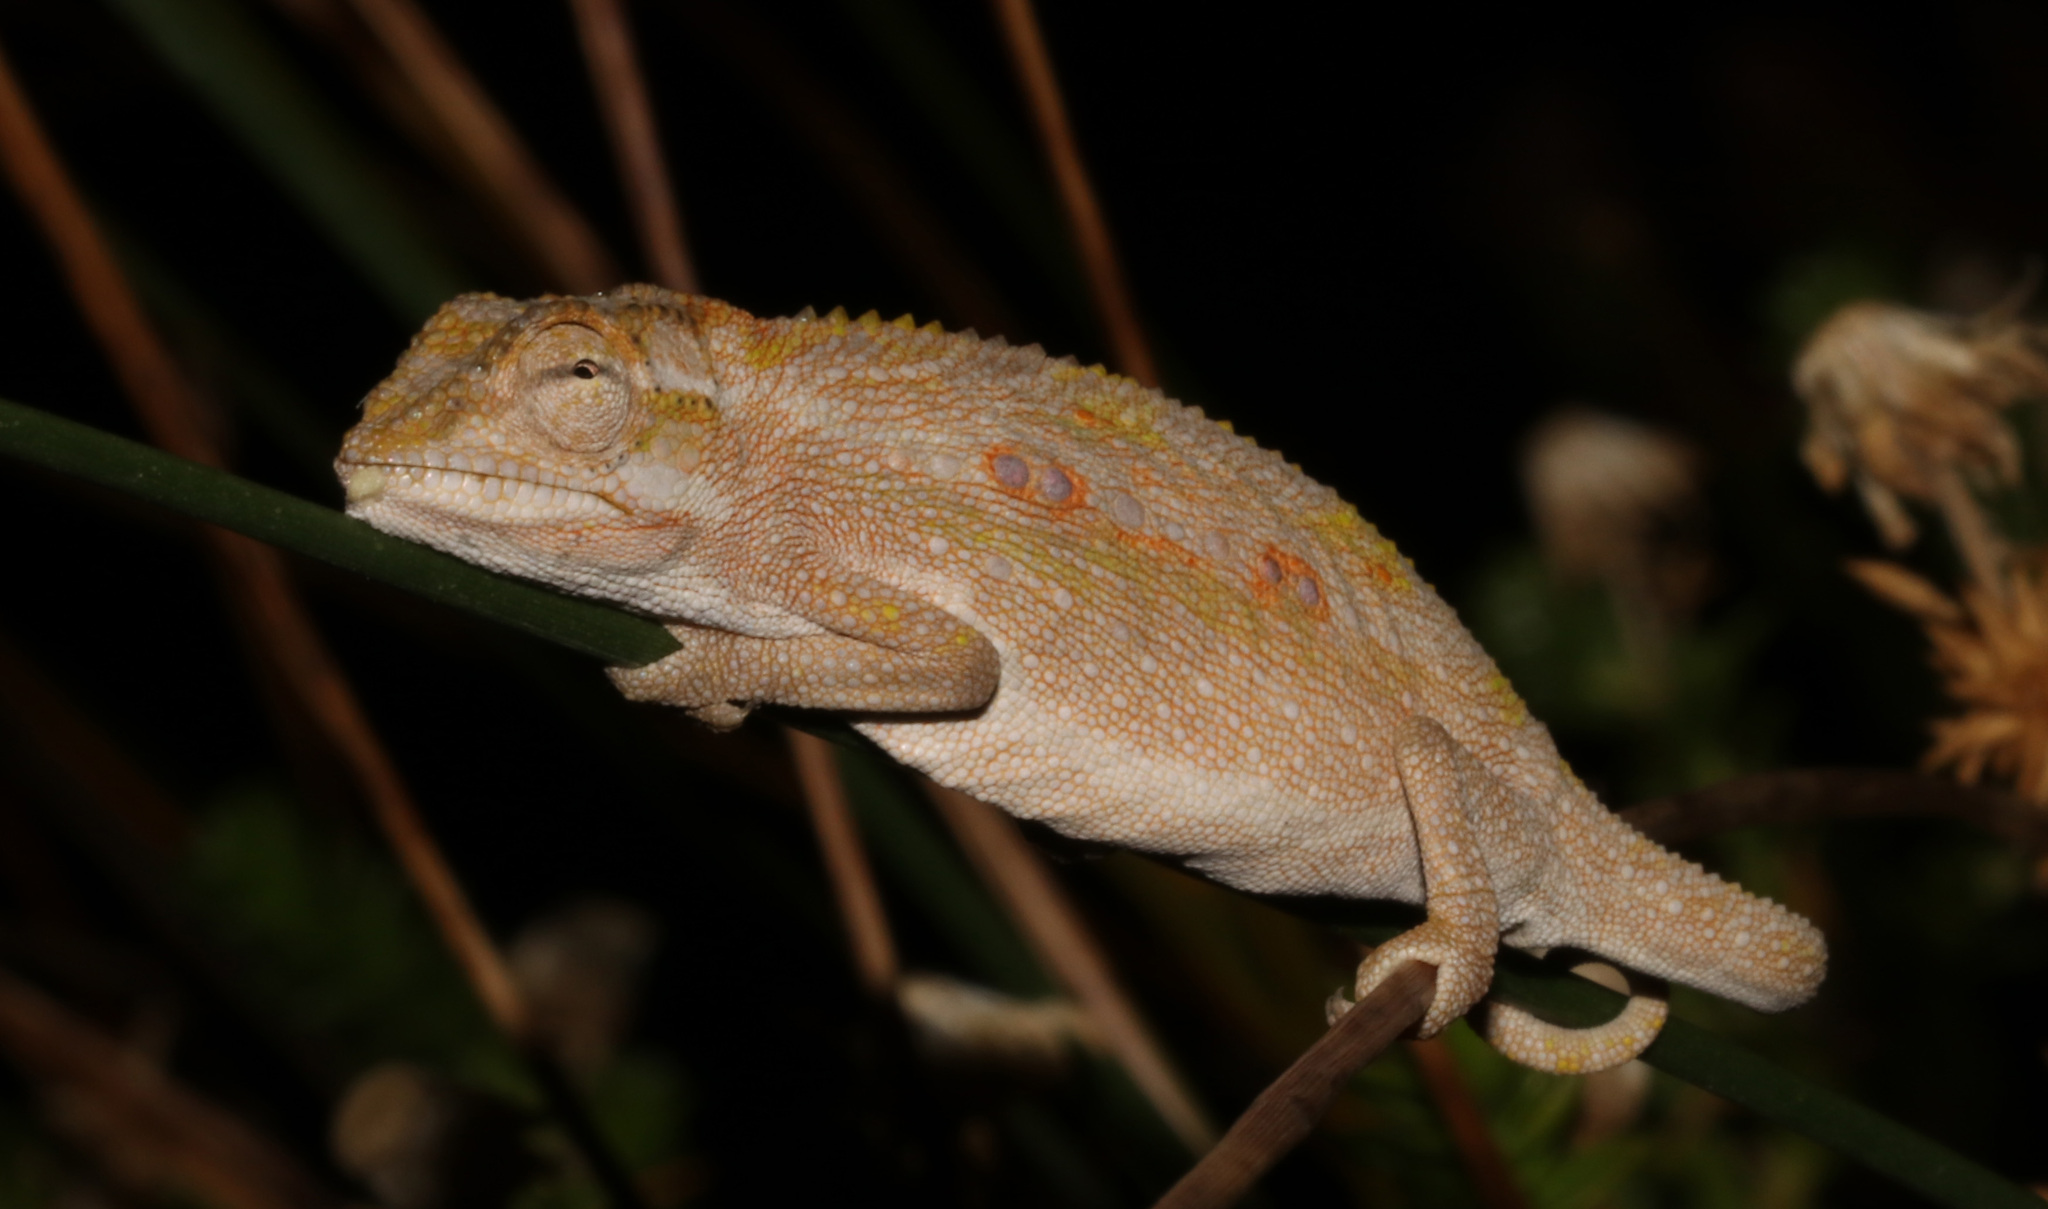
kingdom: Animalia
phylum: Chordata
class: Squamata
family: Chamaeleonidae
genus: Bradypodion
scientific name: Bradypodion pumilum
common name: Cape dwarf chameleon
